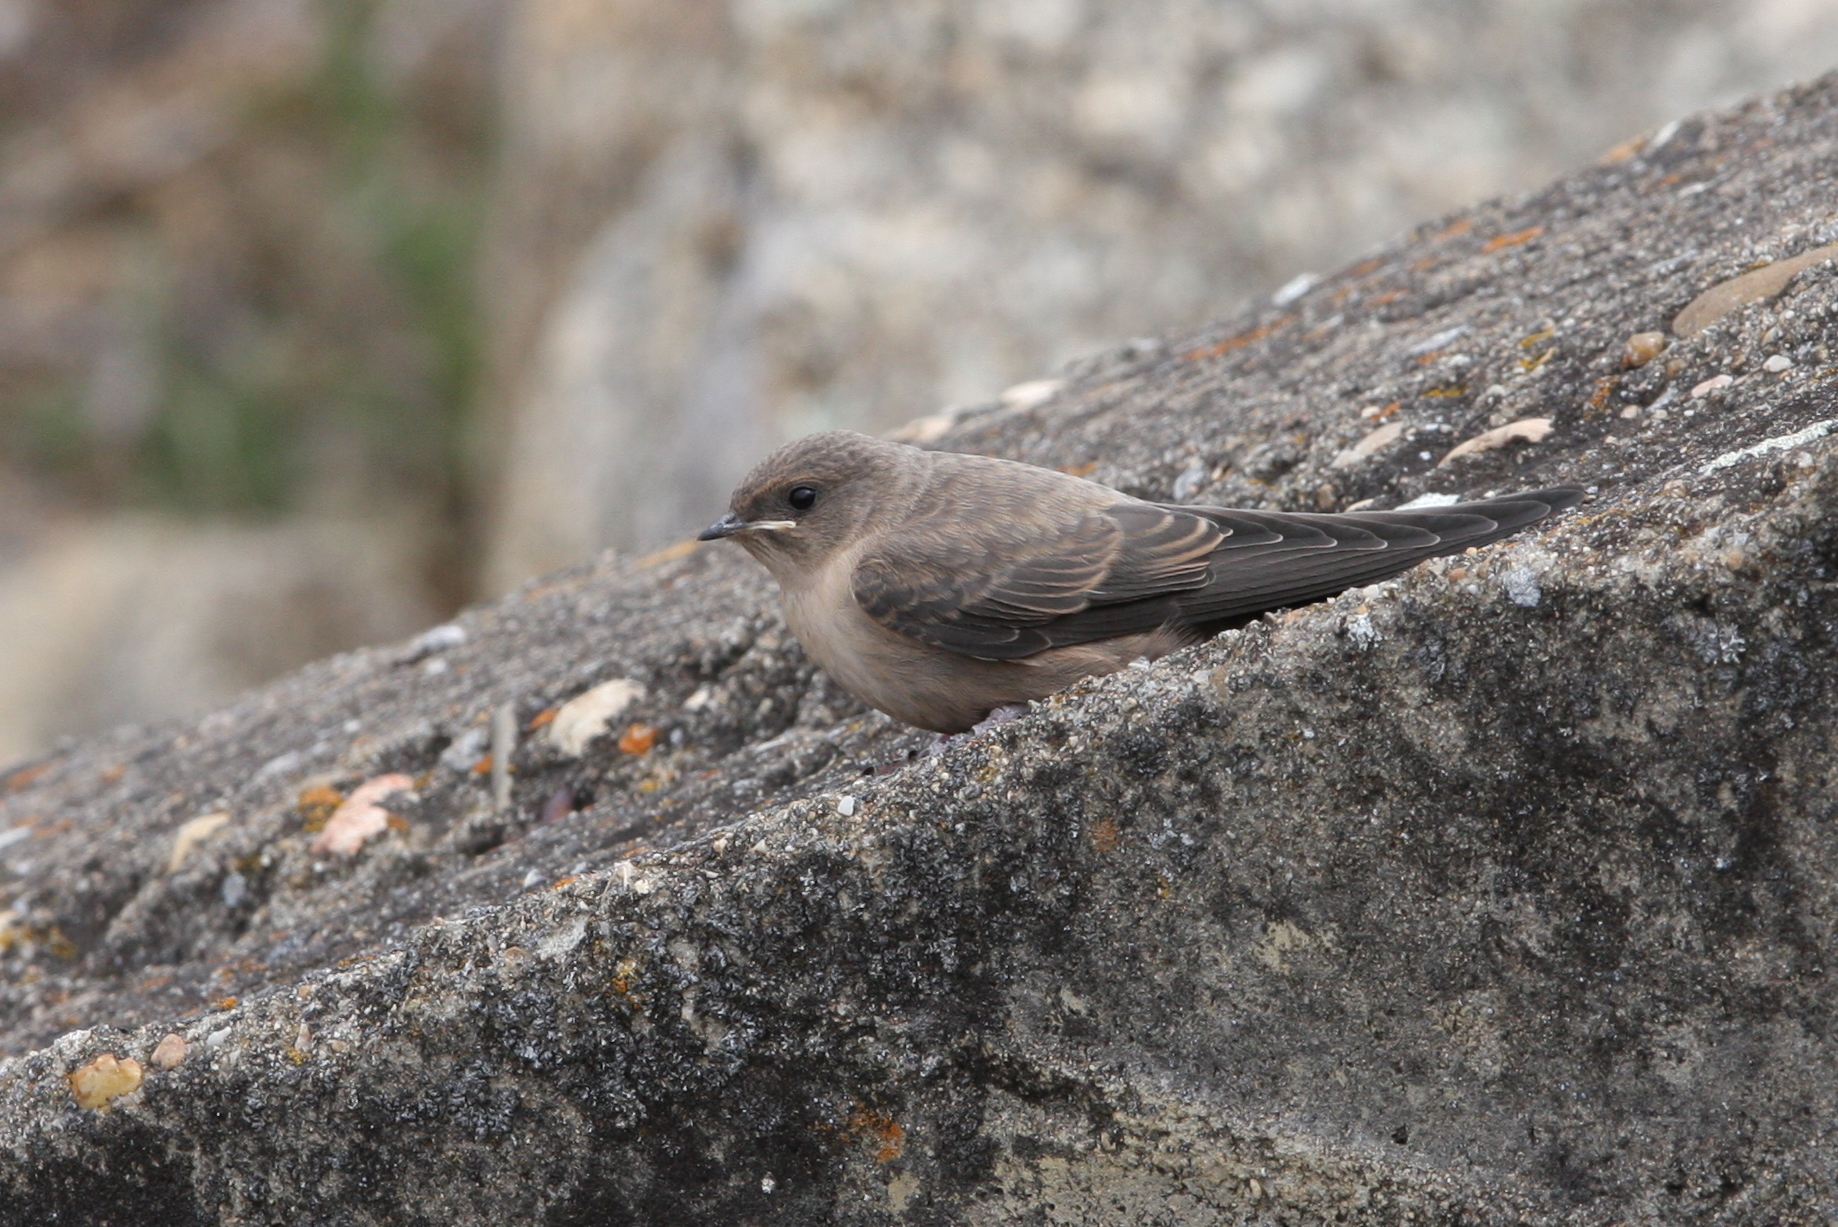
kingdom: Animalia
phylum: Chordata
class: Aves
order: Passeriformes
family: Hirundinidae
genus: Ptyonoprogne
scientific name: Ptyonoprogne rupestris
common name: Eurasian crag martin
